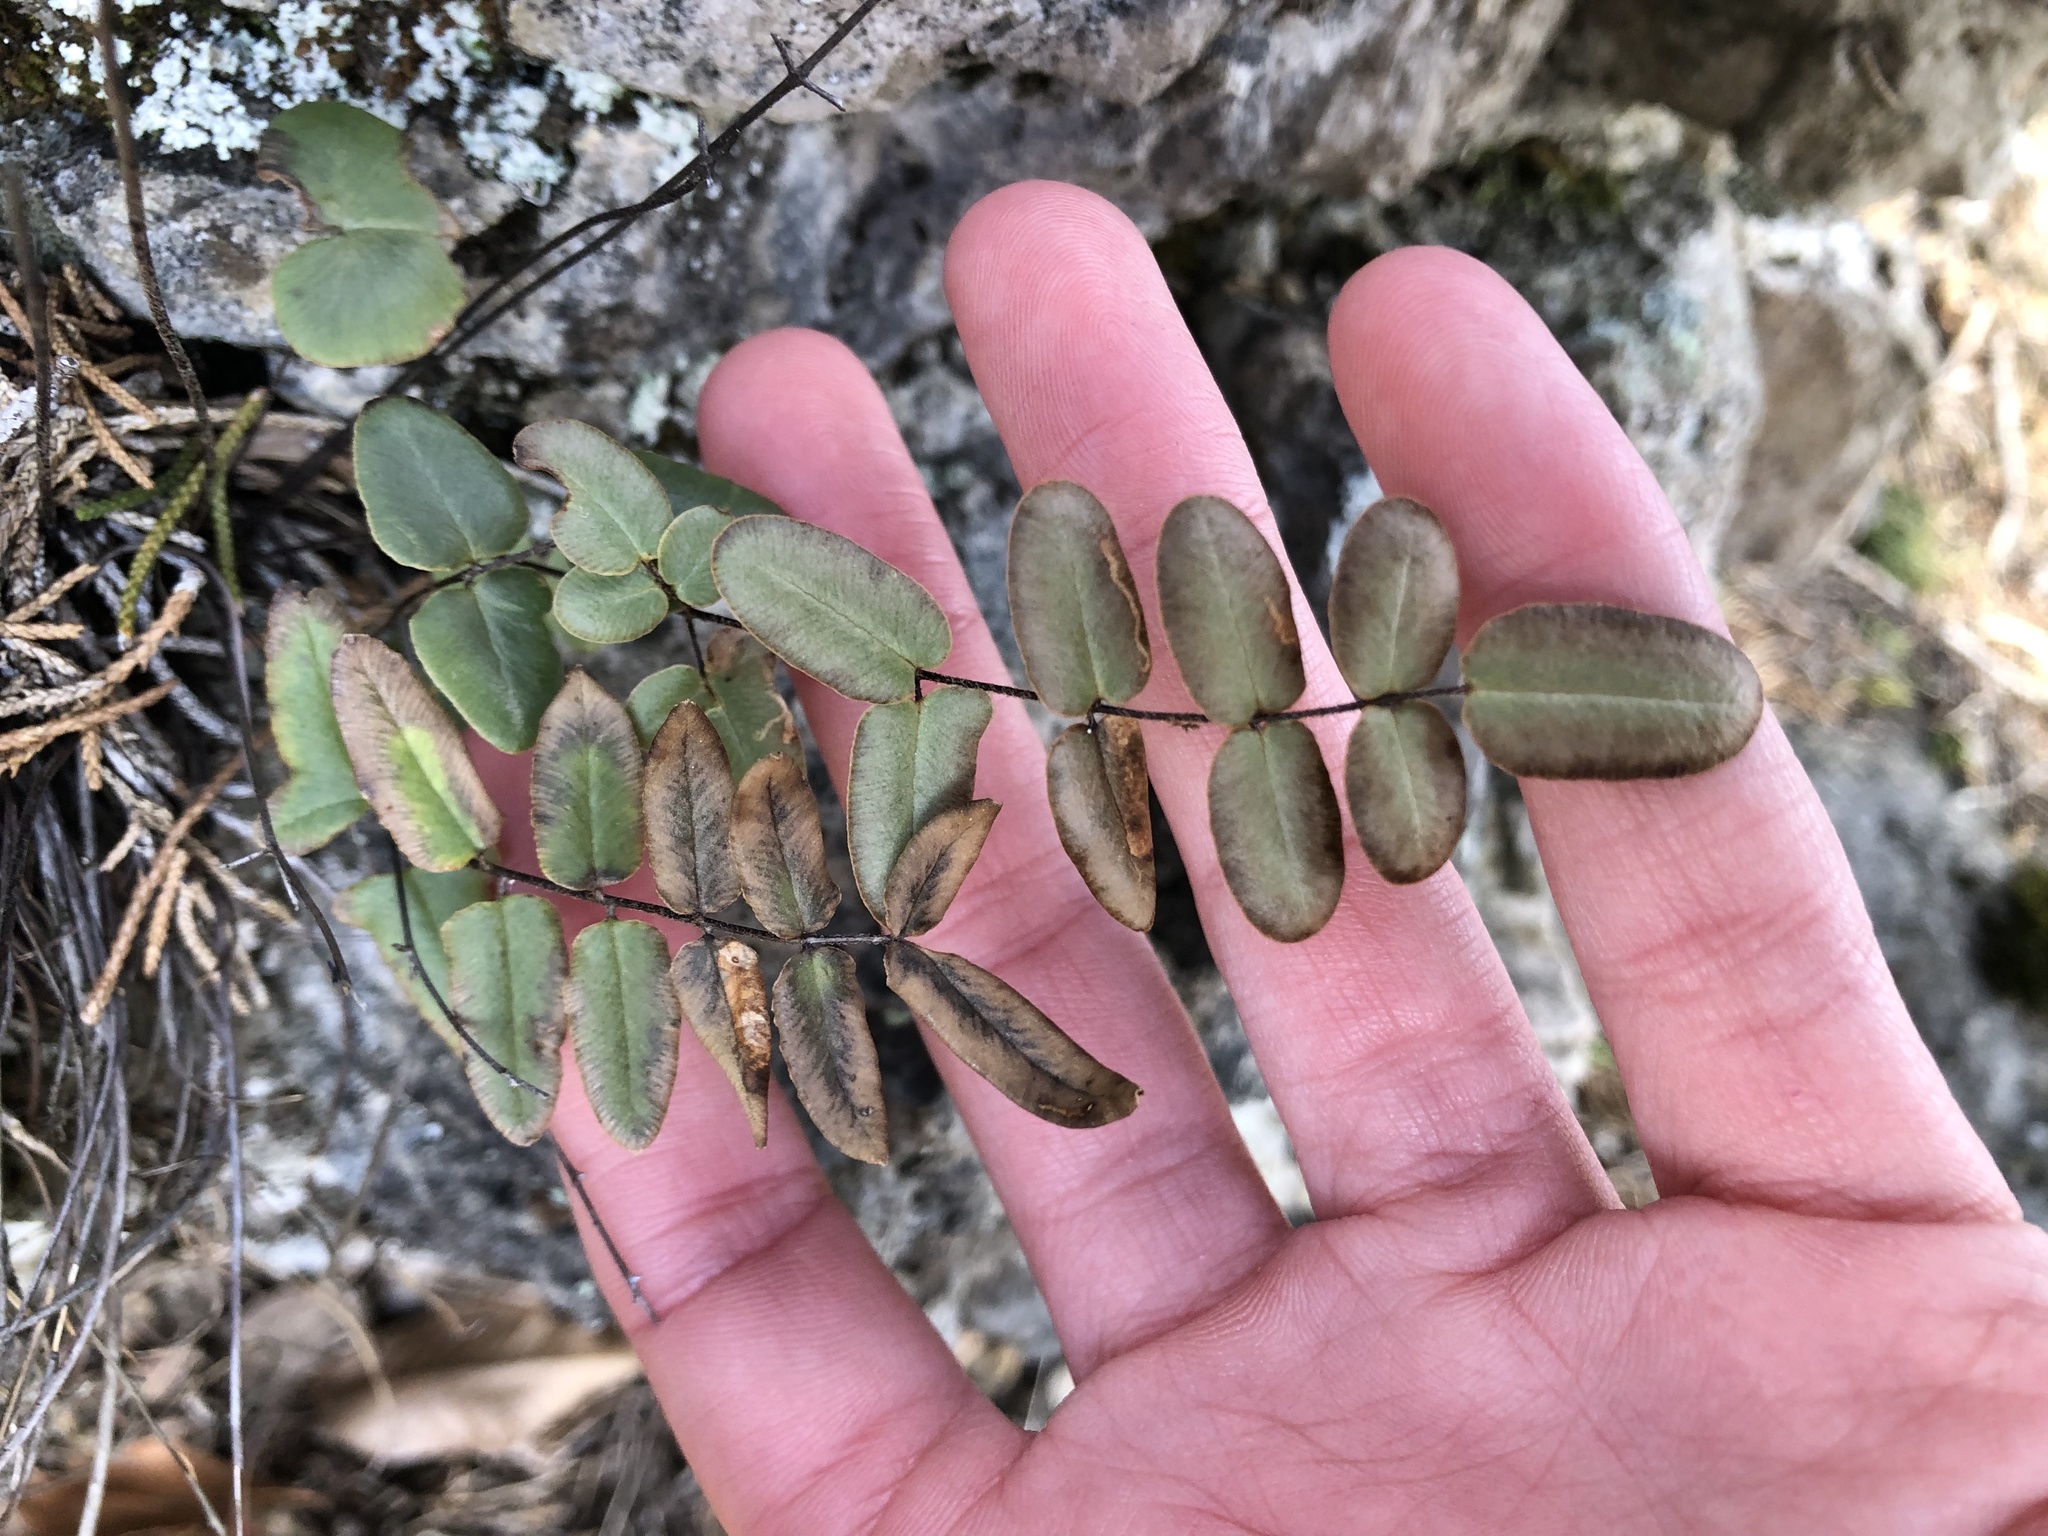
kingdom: Plantae
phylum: Tracheophyta
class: Polypodiopsida
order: Polypodiales
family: Pteridaceae
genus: Pellaea
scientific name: Pellaea atropurpurea
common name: Hairy cliffbrake
